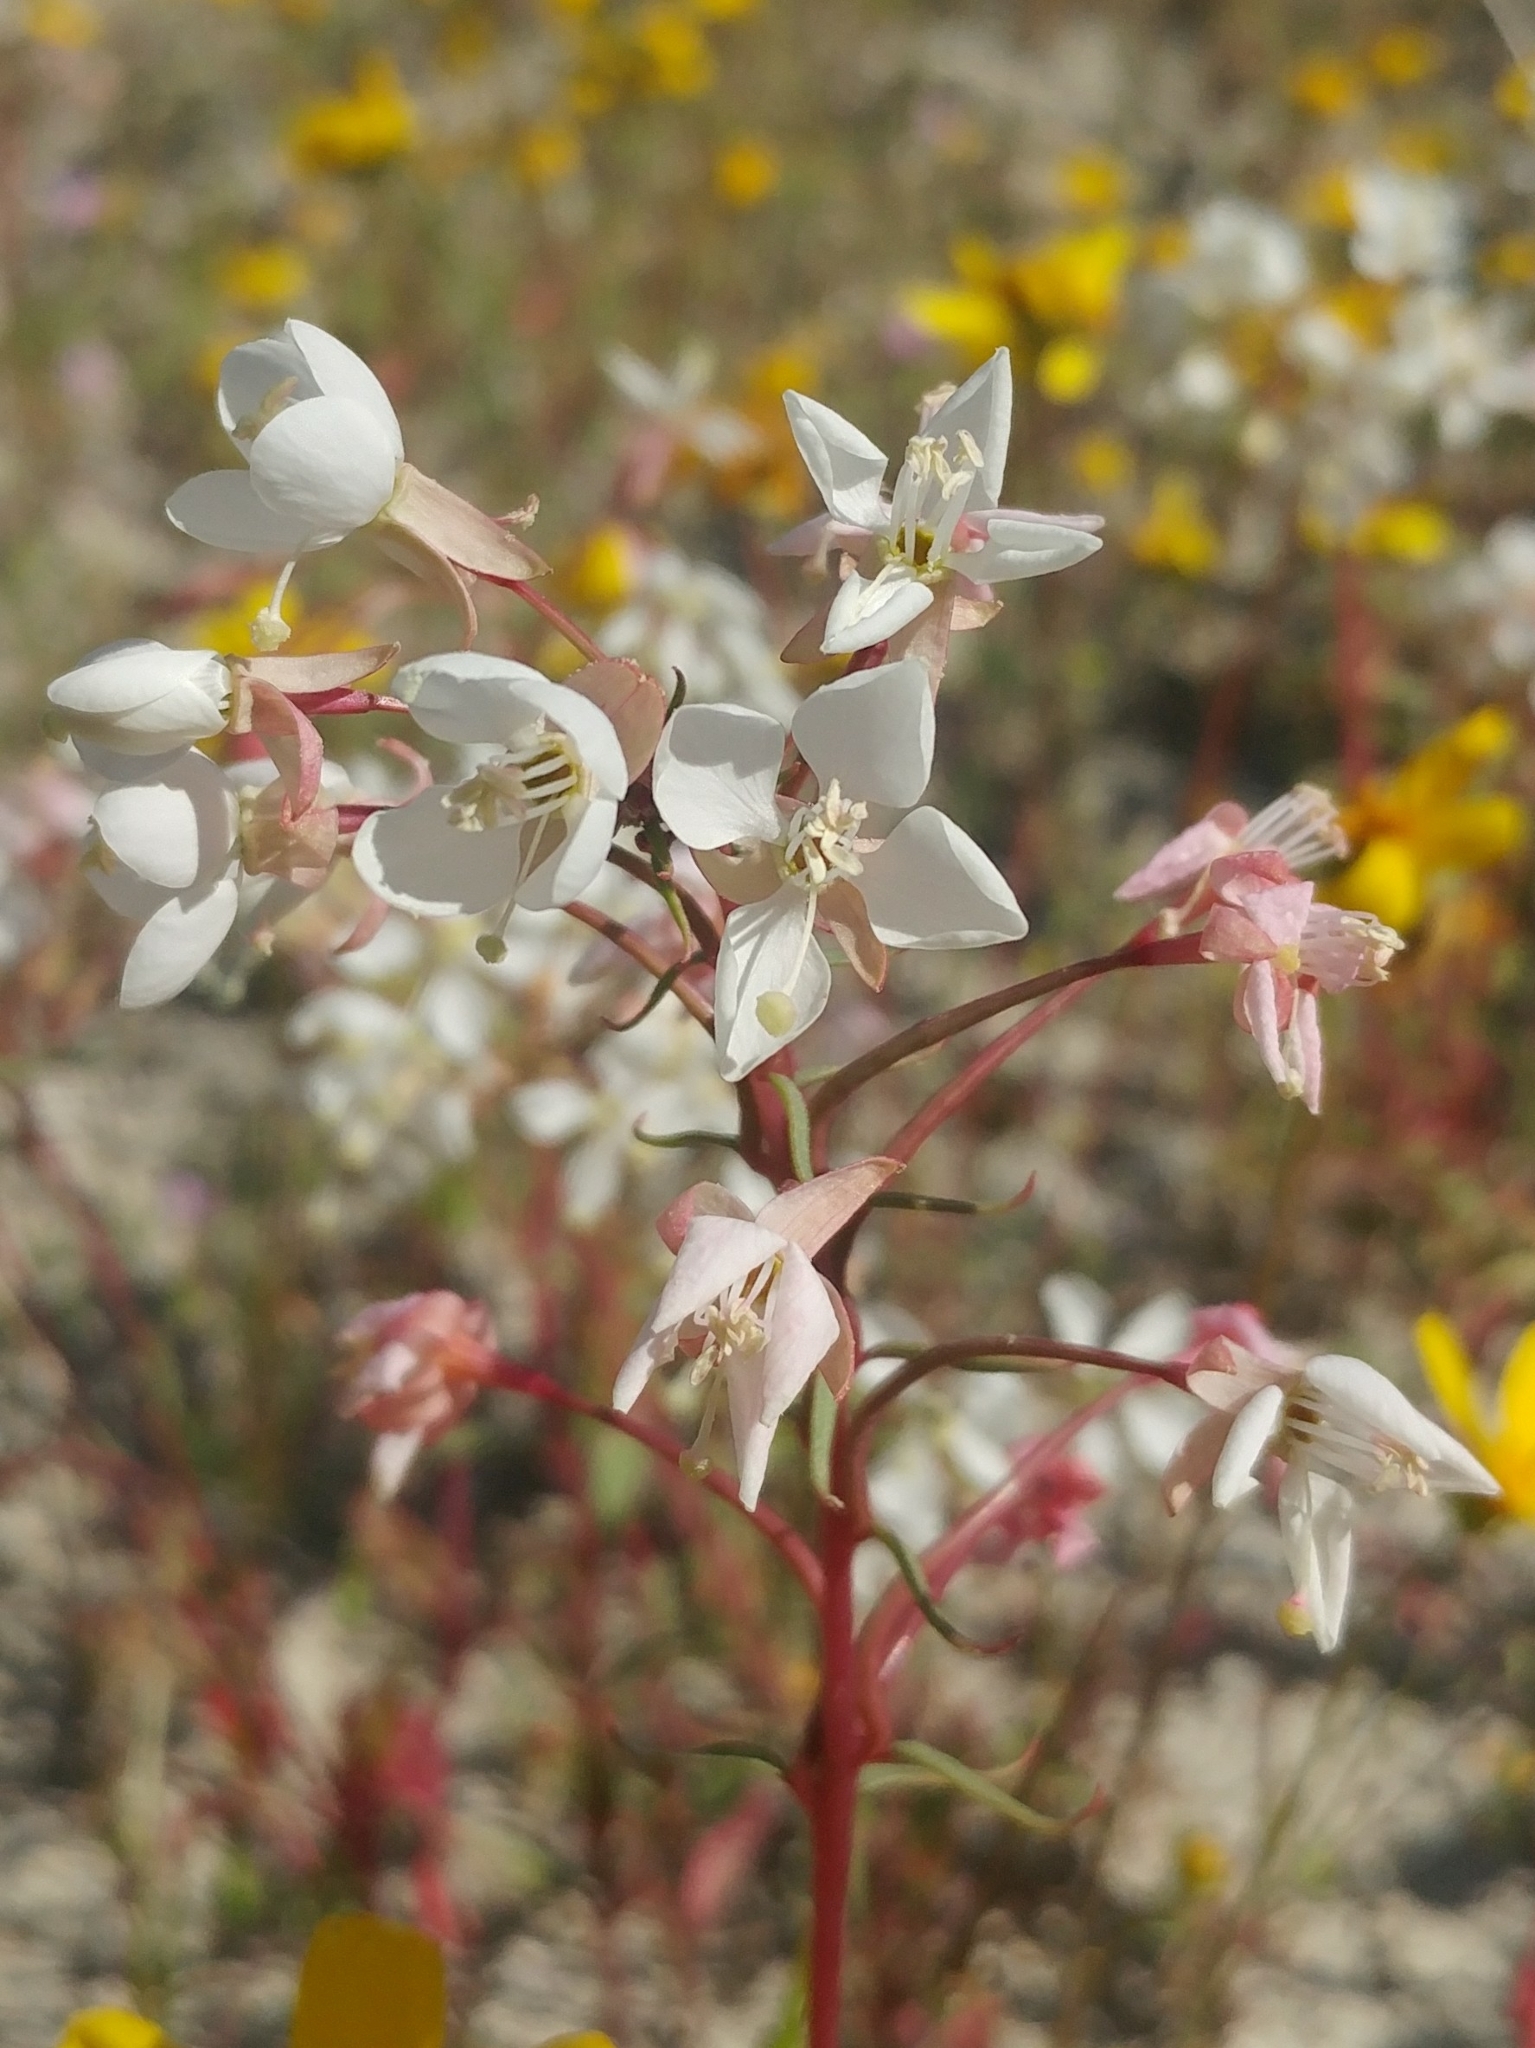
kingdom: Plantae
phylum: Tracheophyta
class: Magnoliopsida
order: Myrtales
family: Onagraceae
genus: Eremothera
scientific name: Eremothera boothii
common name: Booth's evening primrose
